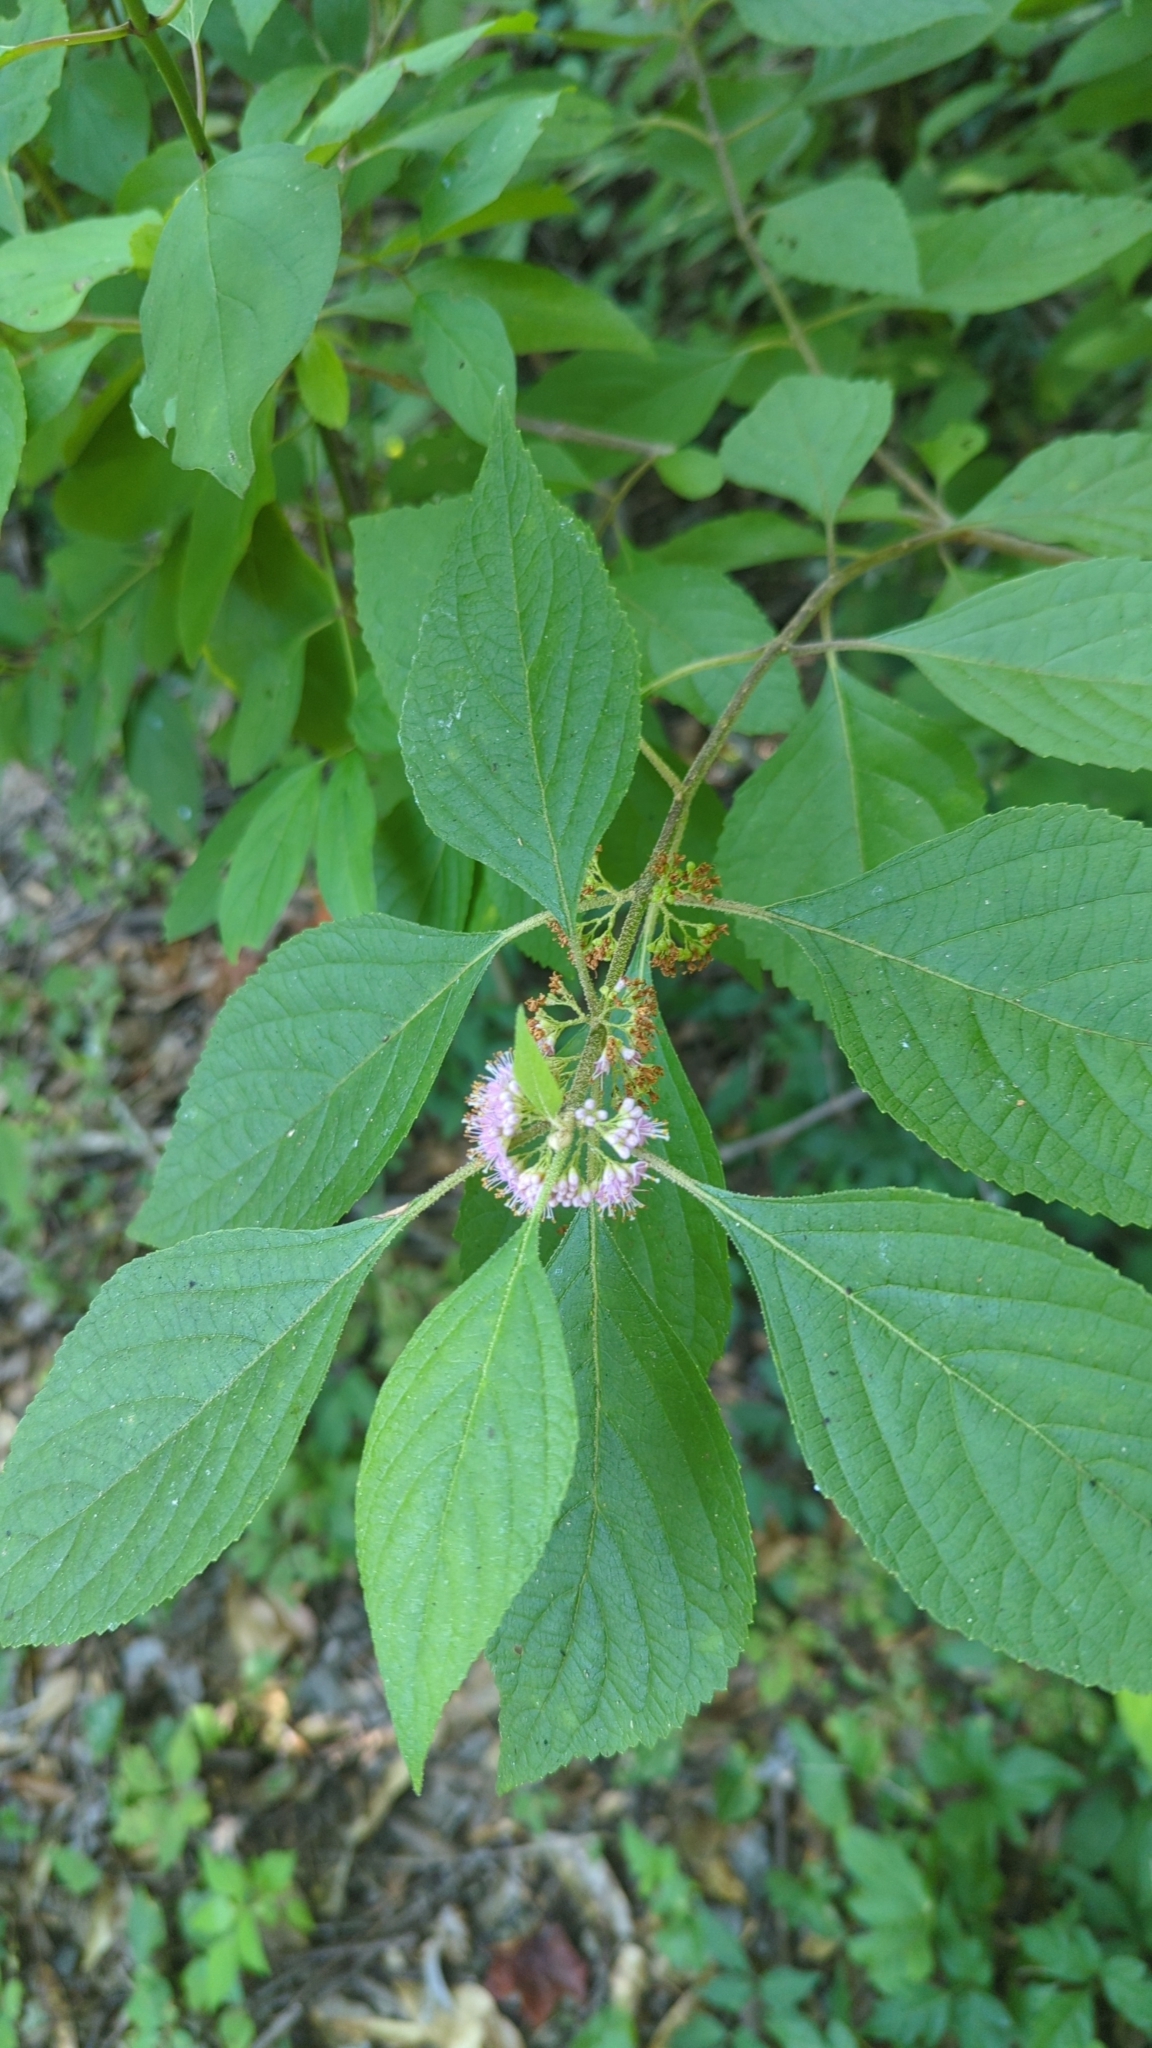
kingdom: Plantae
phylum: Tracheophyta
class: Magnoliopsida
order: Lamiales
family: Lamiaceae
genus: Callicarpa
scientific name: Callicarpa americana
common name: American beautyberry
